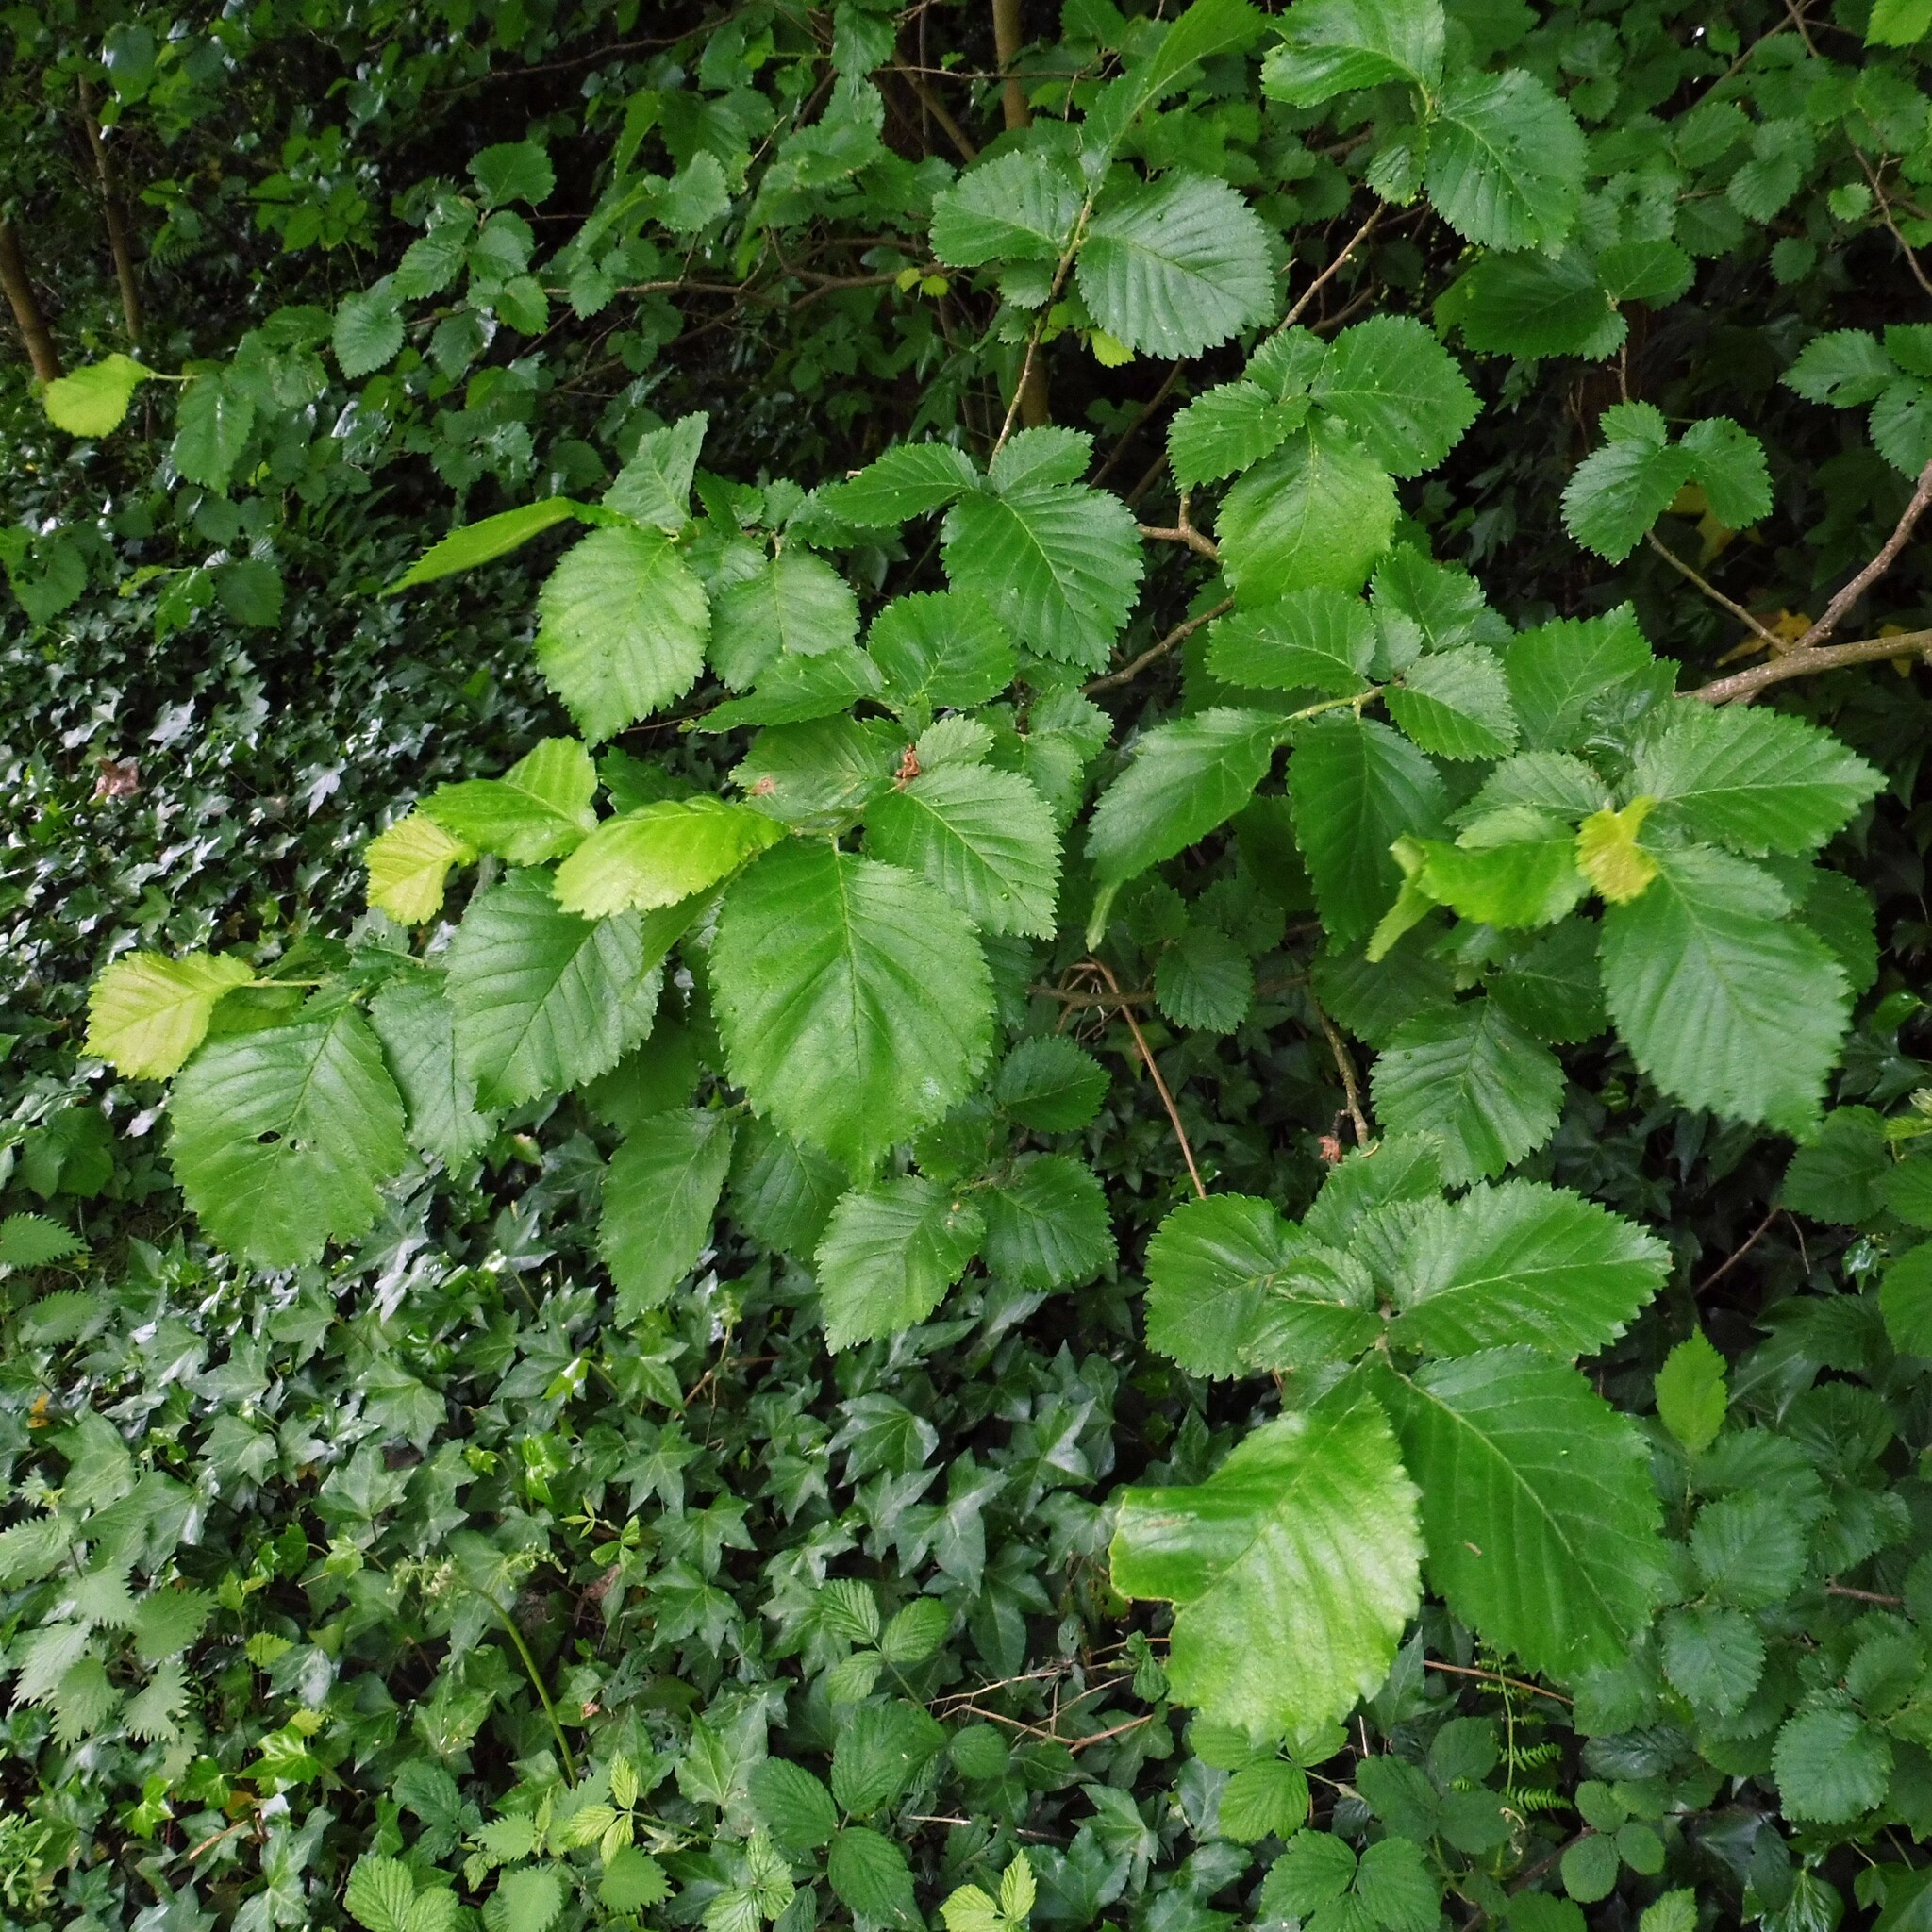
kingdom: Plantae
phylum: Tracheophyta
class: Magnoliopsida
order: Rosales
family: Ulmaceae
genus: Ulmus
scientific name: Ulmus minor
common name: Small-leaved elm
